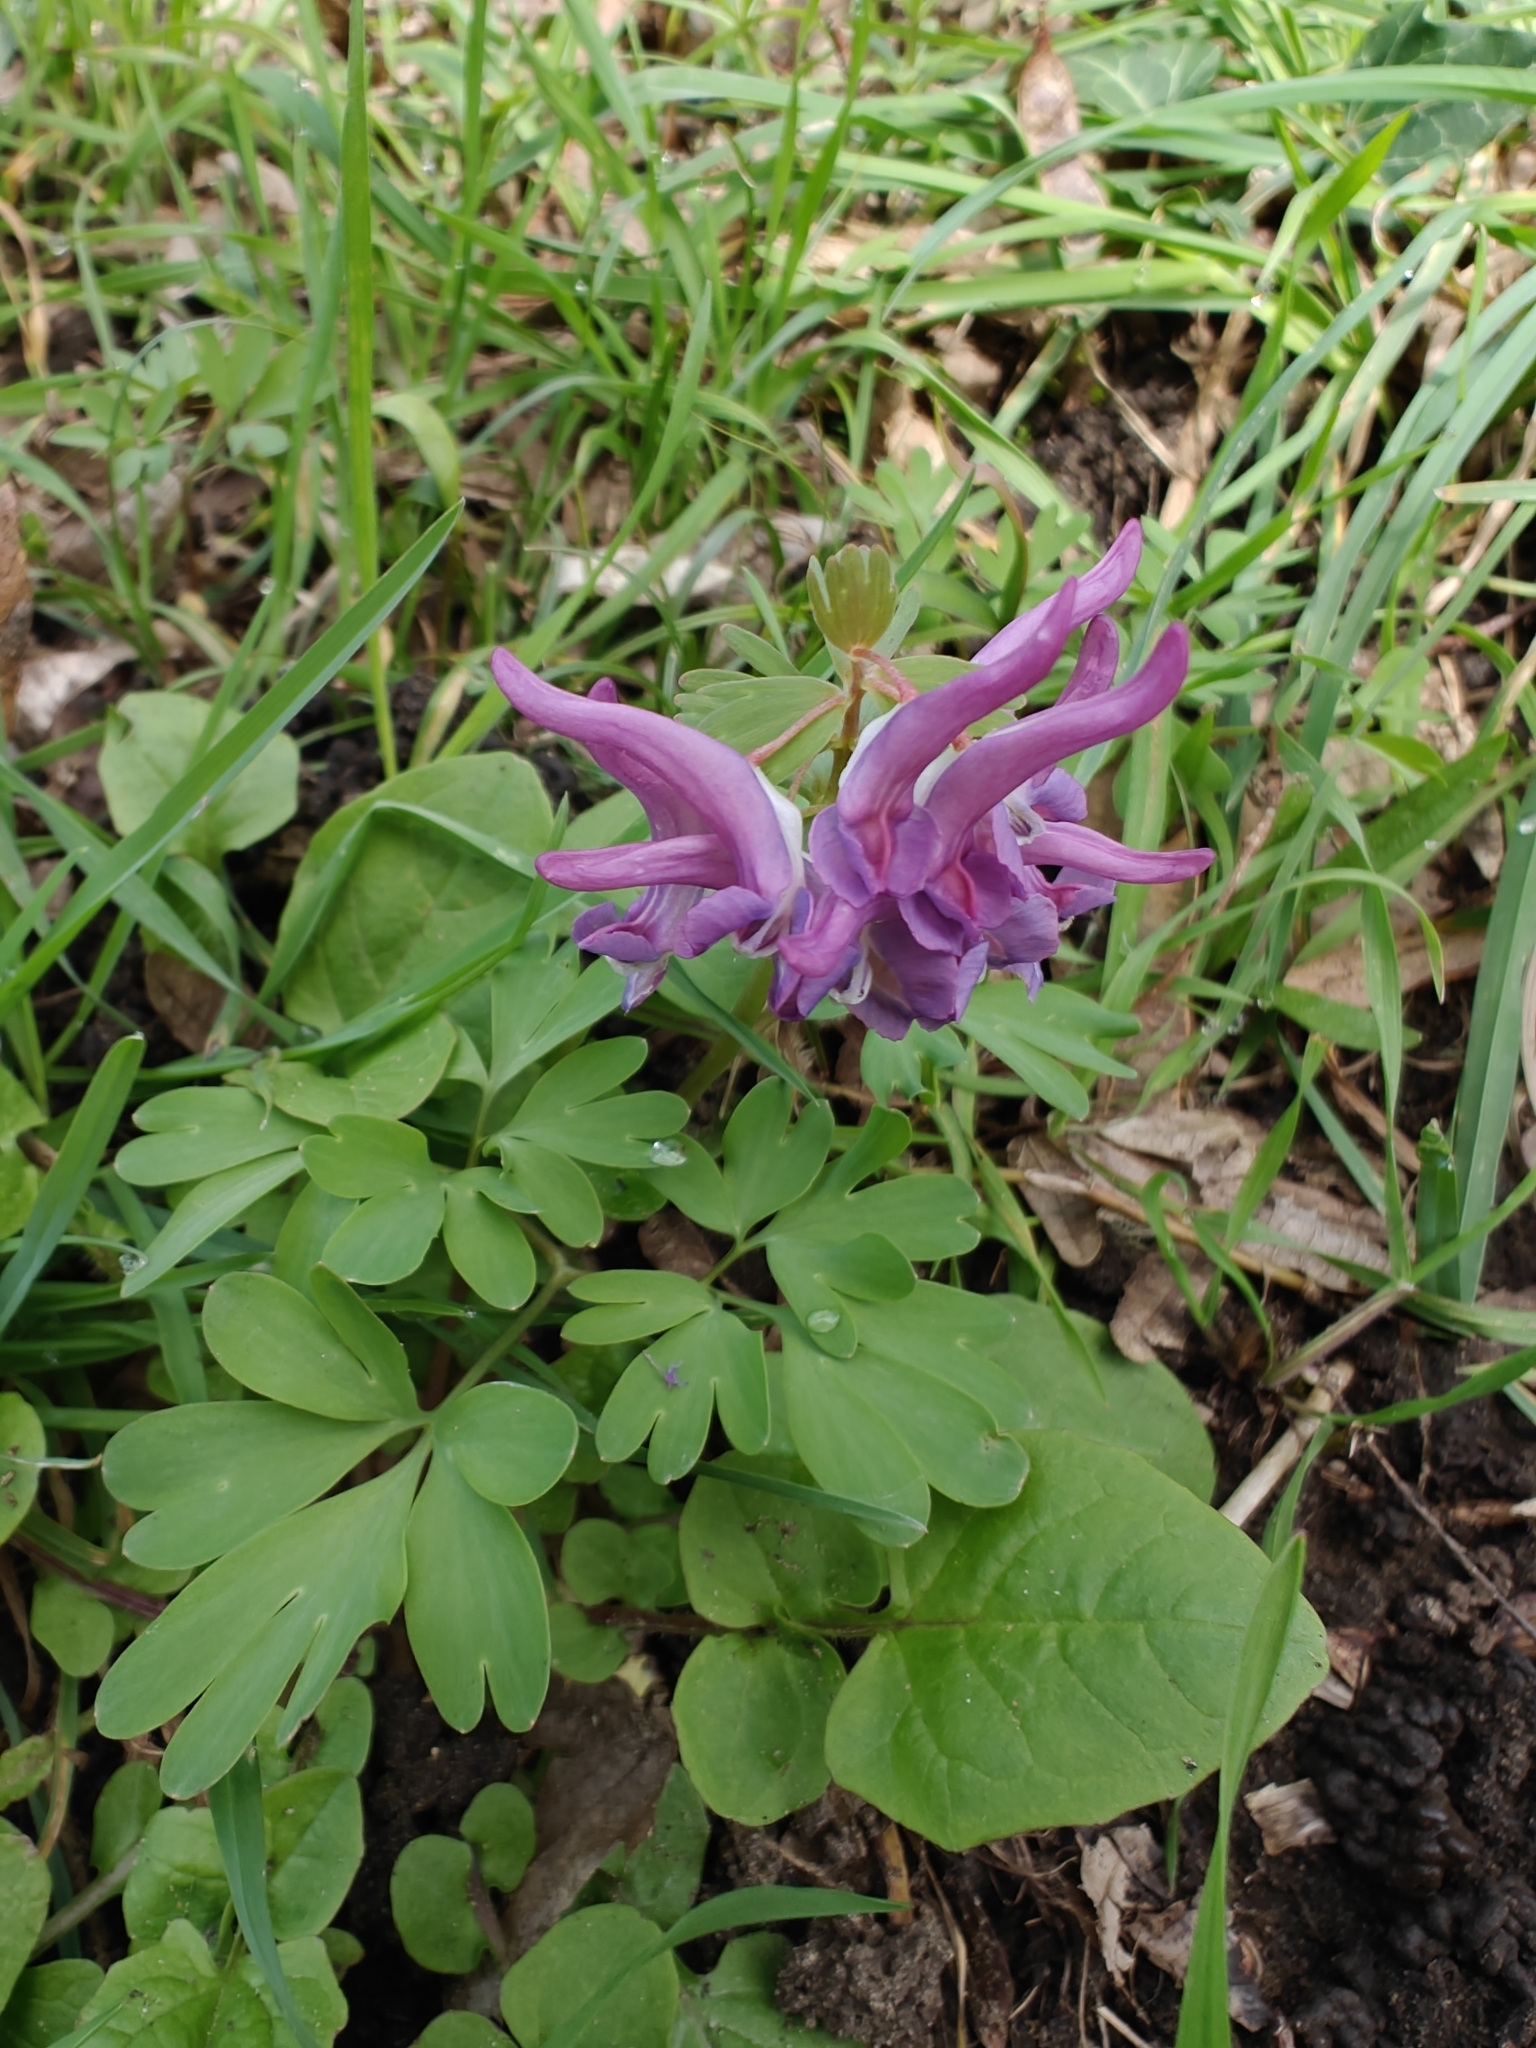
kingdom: Plantae
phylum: Tracheophyta
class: Magnoliopsida
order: Ranunculales
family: Papaveraceae
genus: Corydalis
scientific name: Corydalis solida
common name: Bird-in-a-bush
